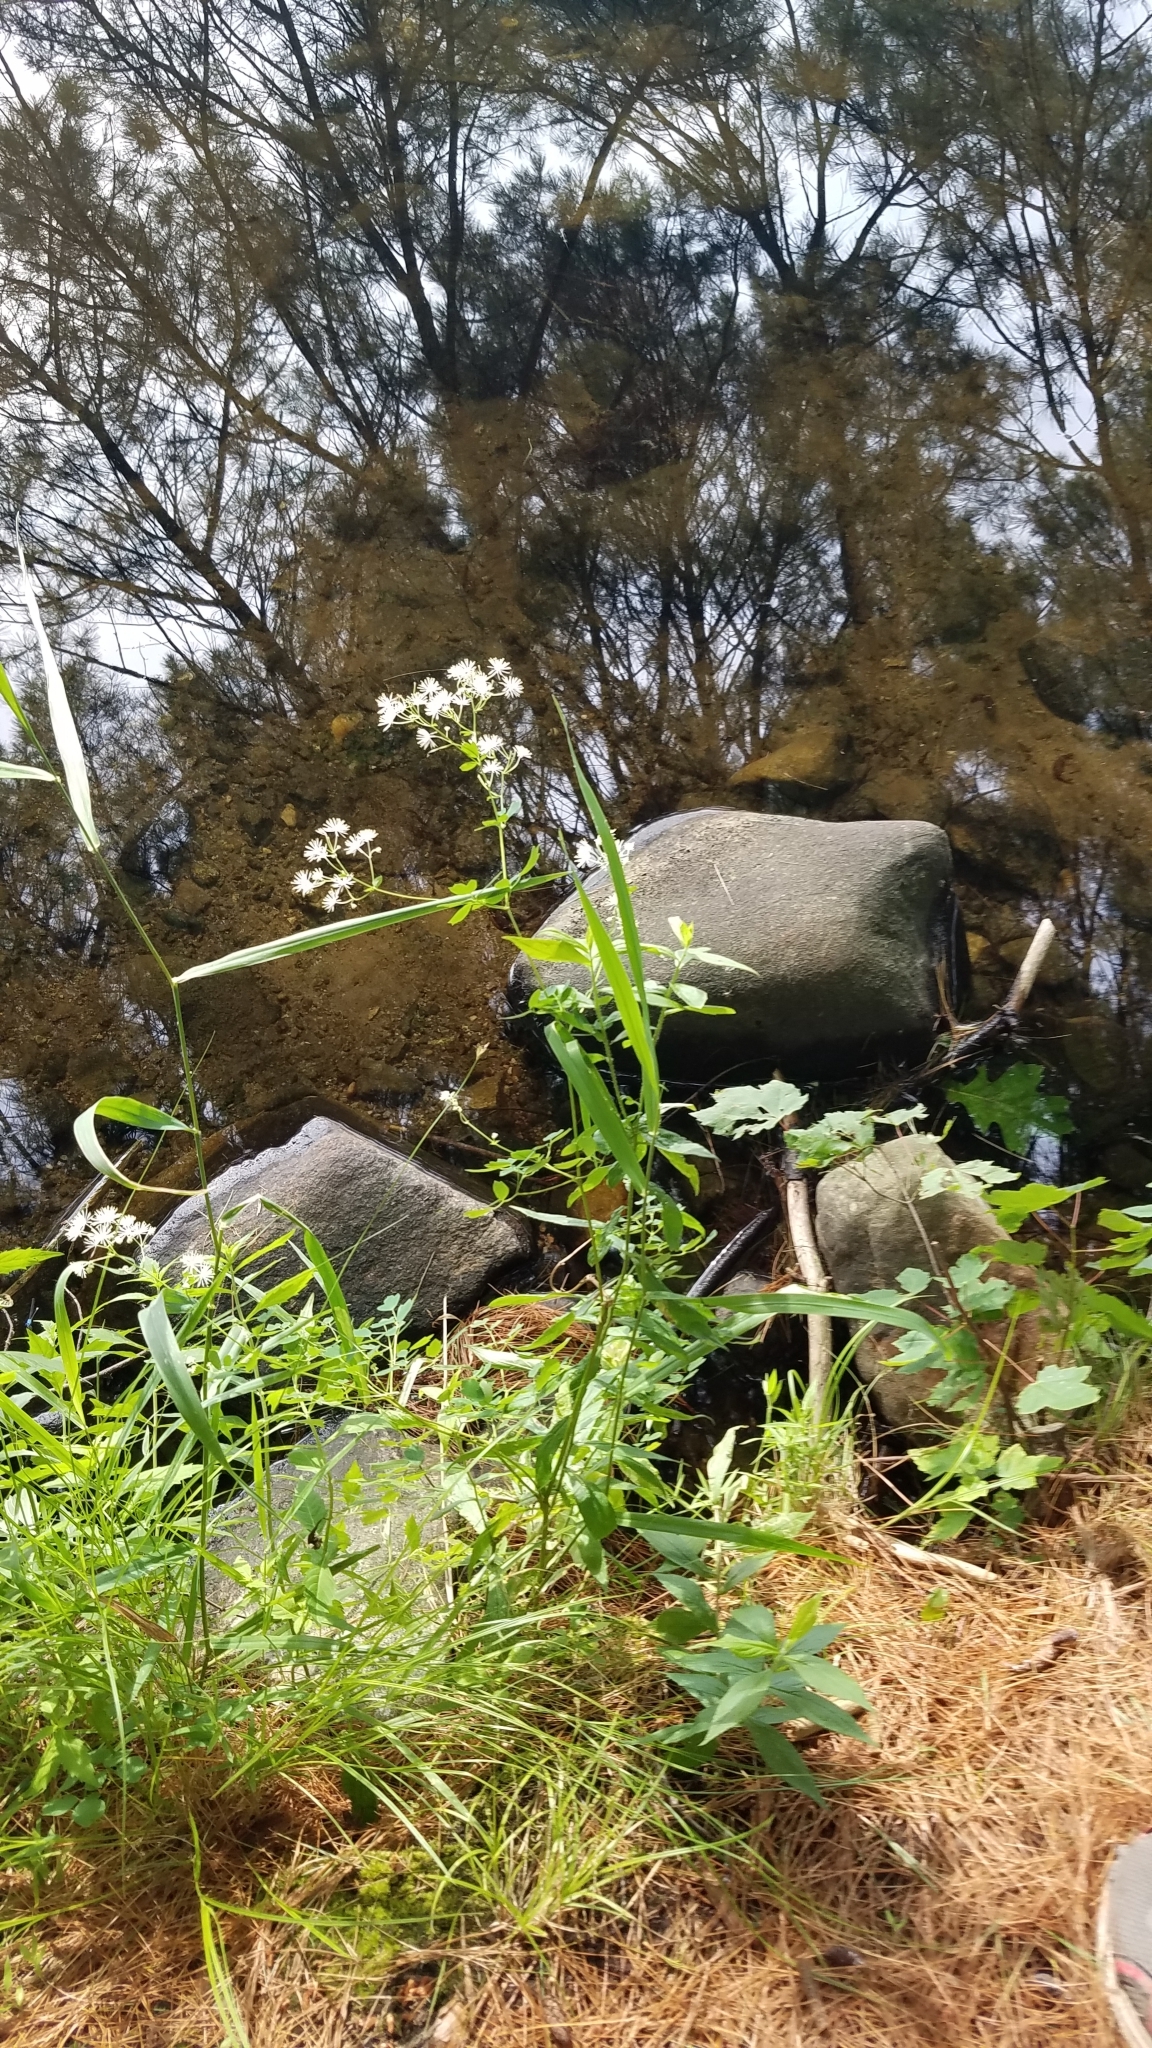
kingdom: Plantae
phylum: Tracheophyta
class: Magnoliopsida
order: Ranunculales
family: Ranunculaceae
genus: Thalictrum
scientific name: Thalictrum pubescens
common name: King-of-the-meadow
